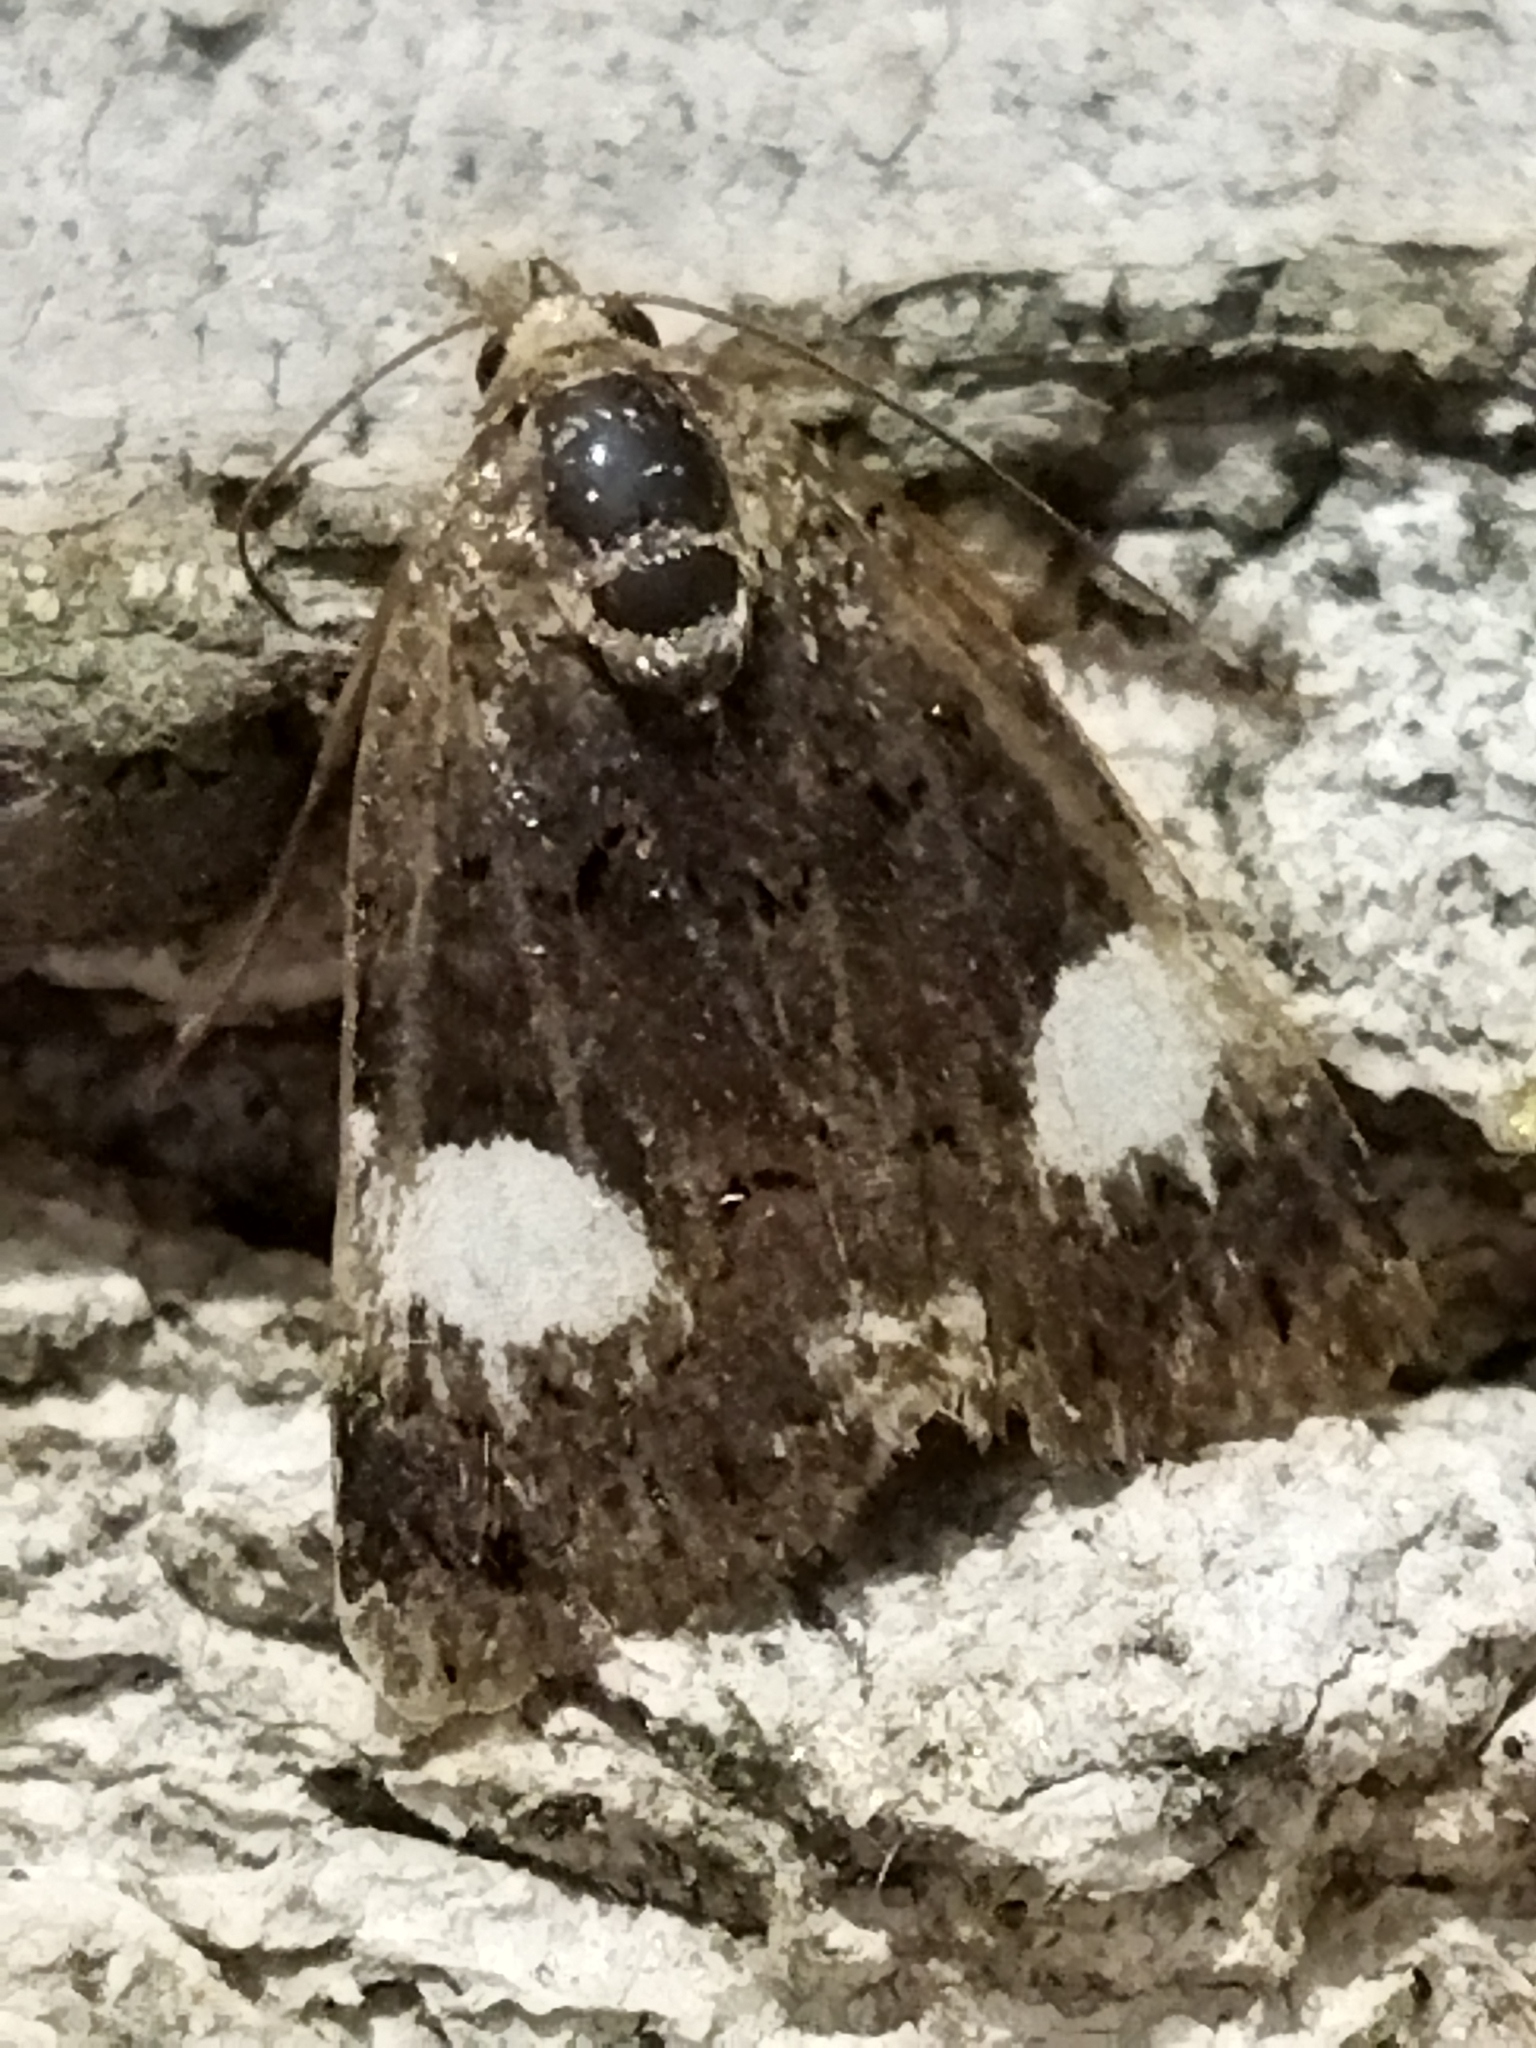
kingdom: Animalia
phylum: Arthropoda
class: Insecta
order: Lepidoptera
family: Erebidae
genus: Tyta
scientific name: Tyta luctuosa
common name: Four-spotted
